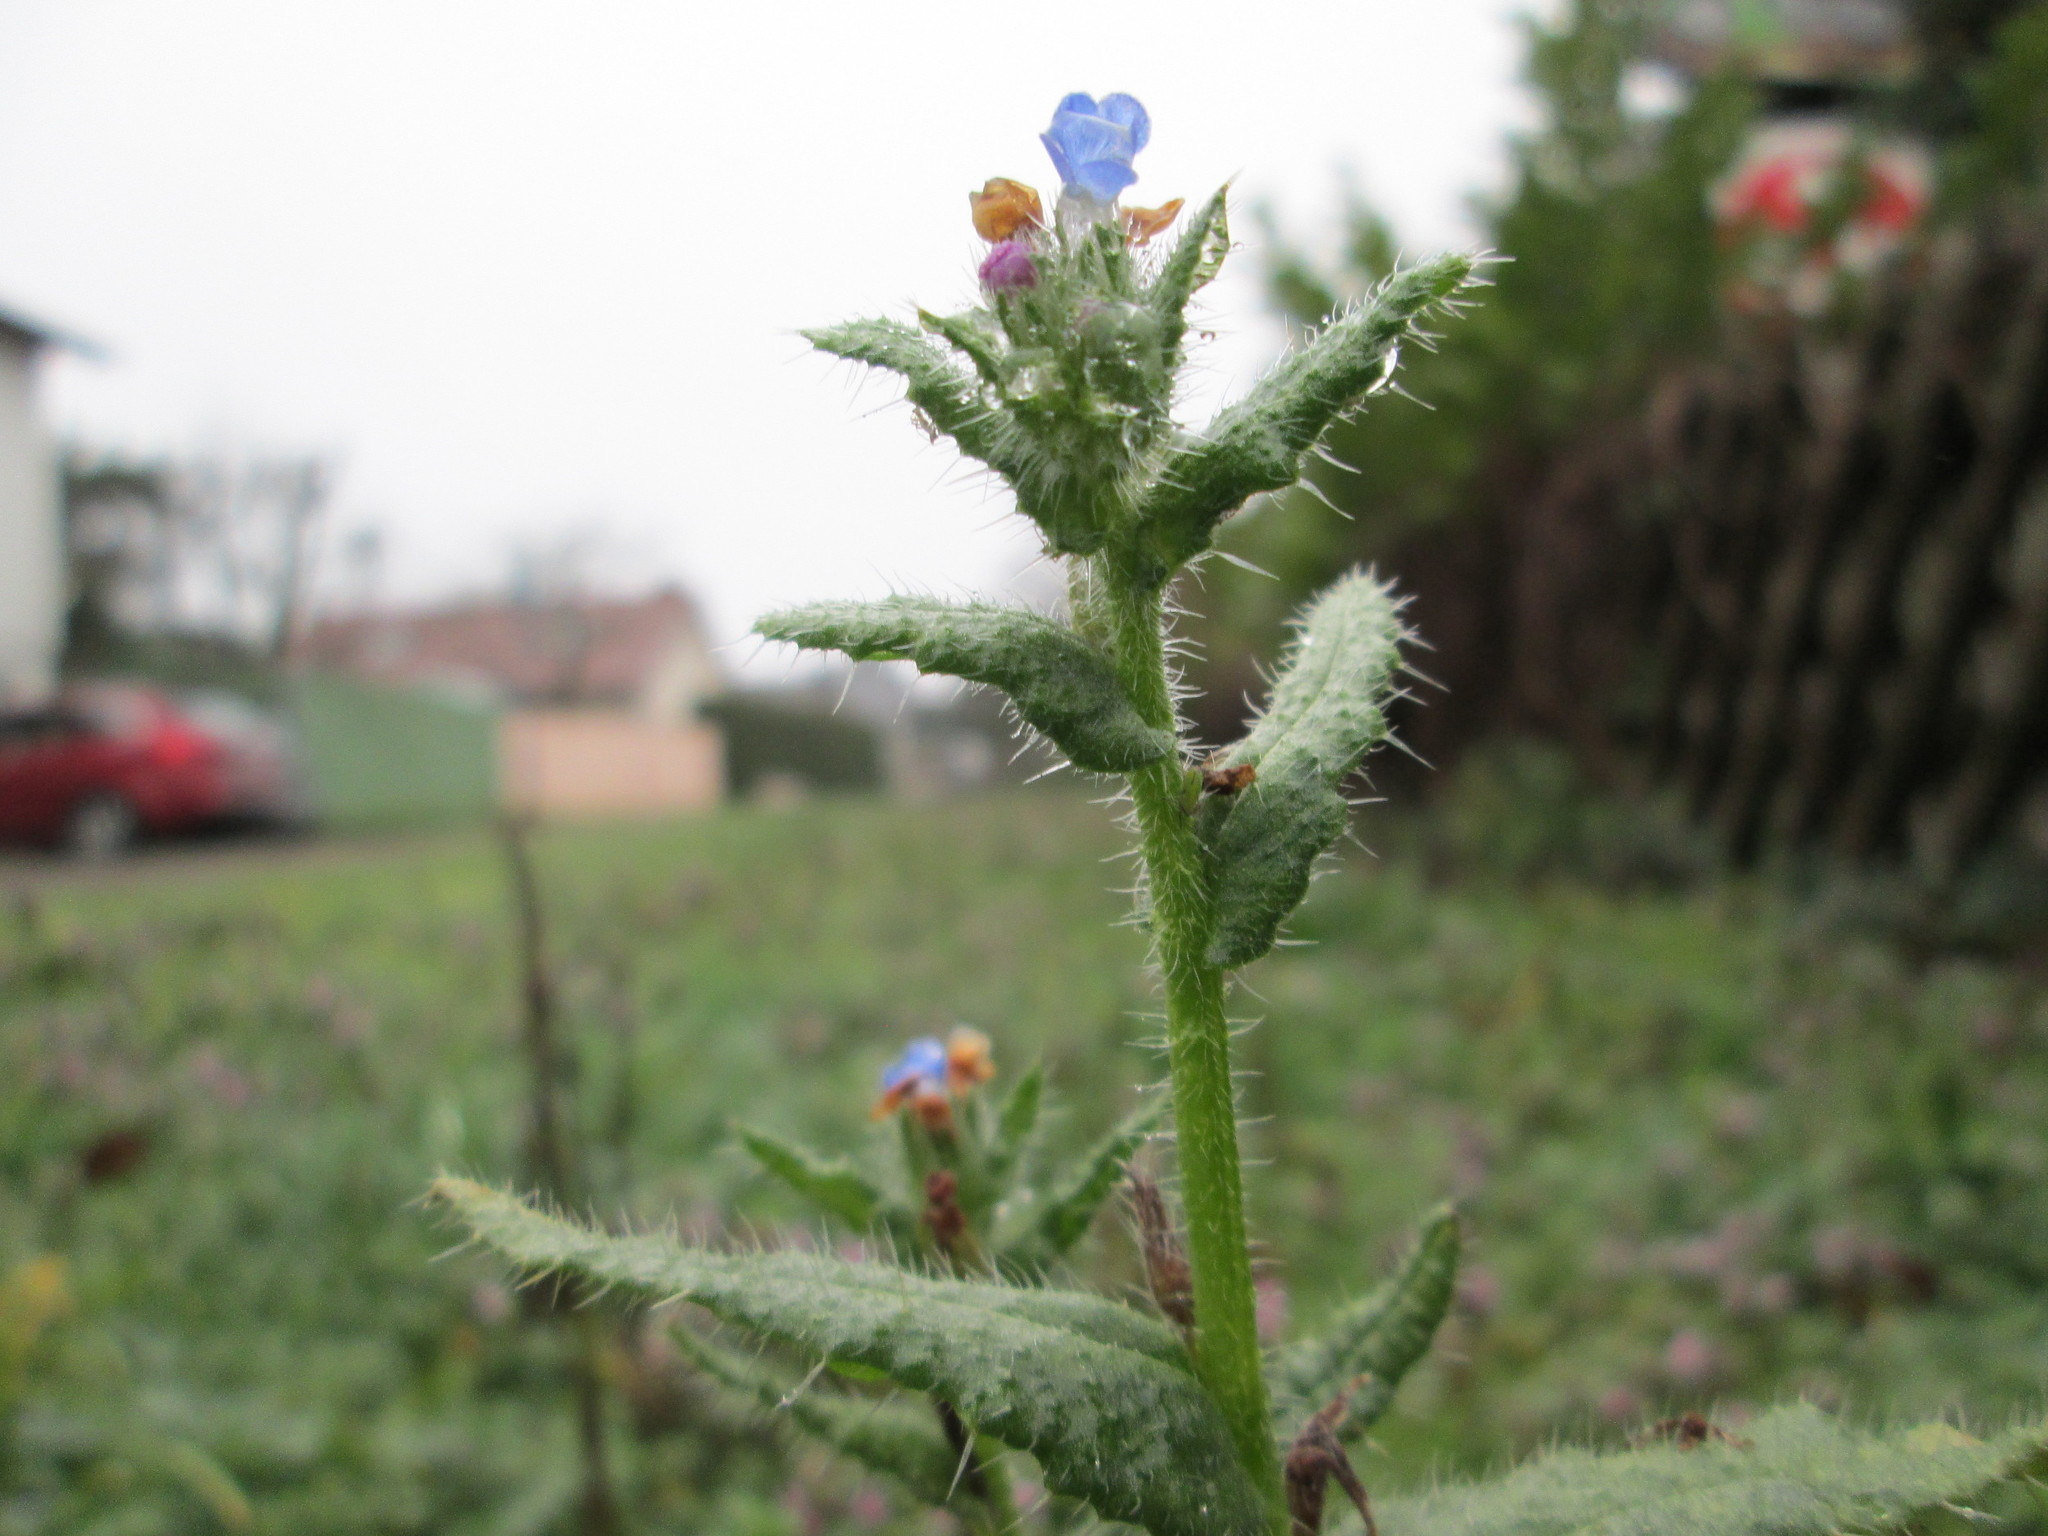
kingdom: Plantae
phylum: Tracheophyta
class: Magnoliopsida
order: Boraginales
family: Boraginaceae
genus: Lycopsis
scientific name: Lycopsis arvensis
